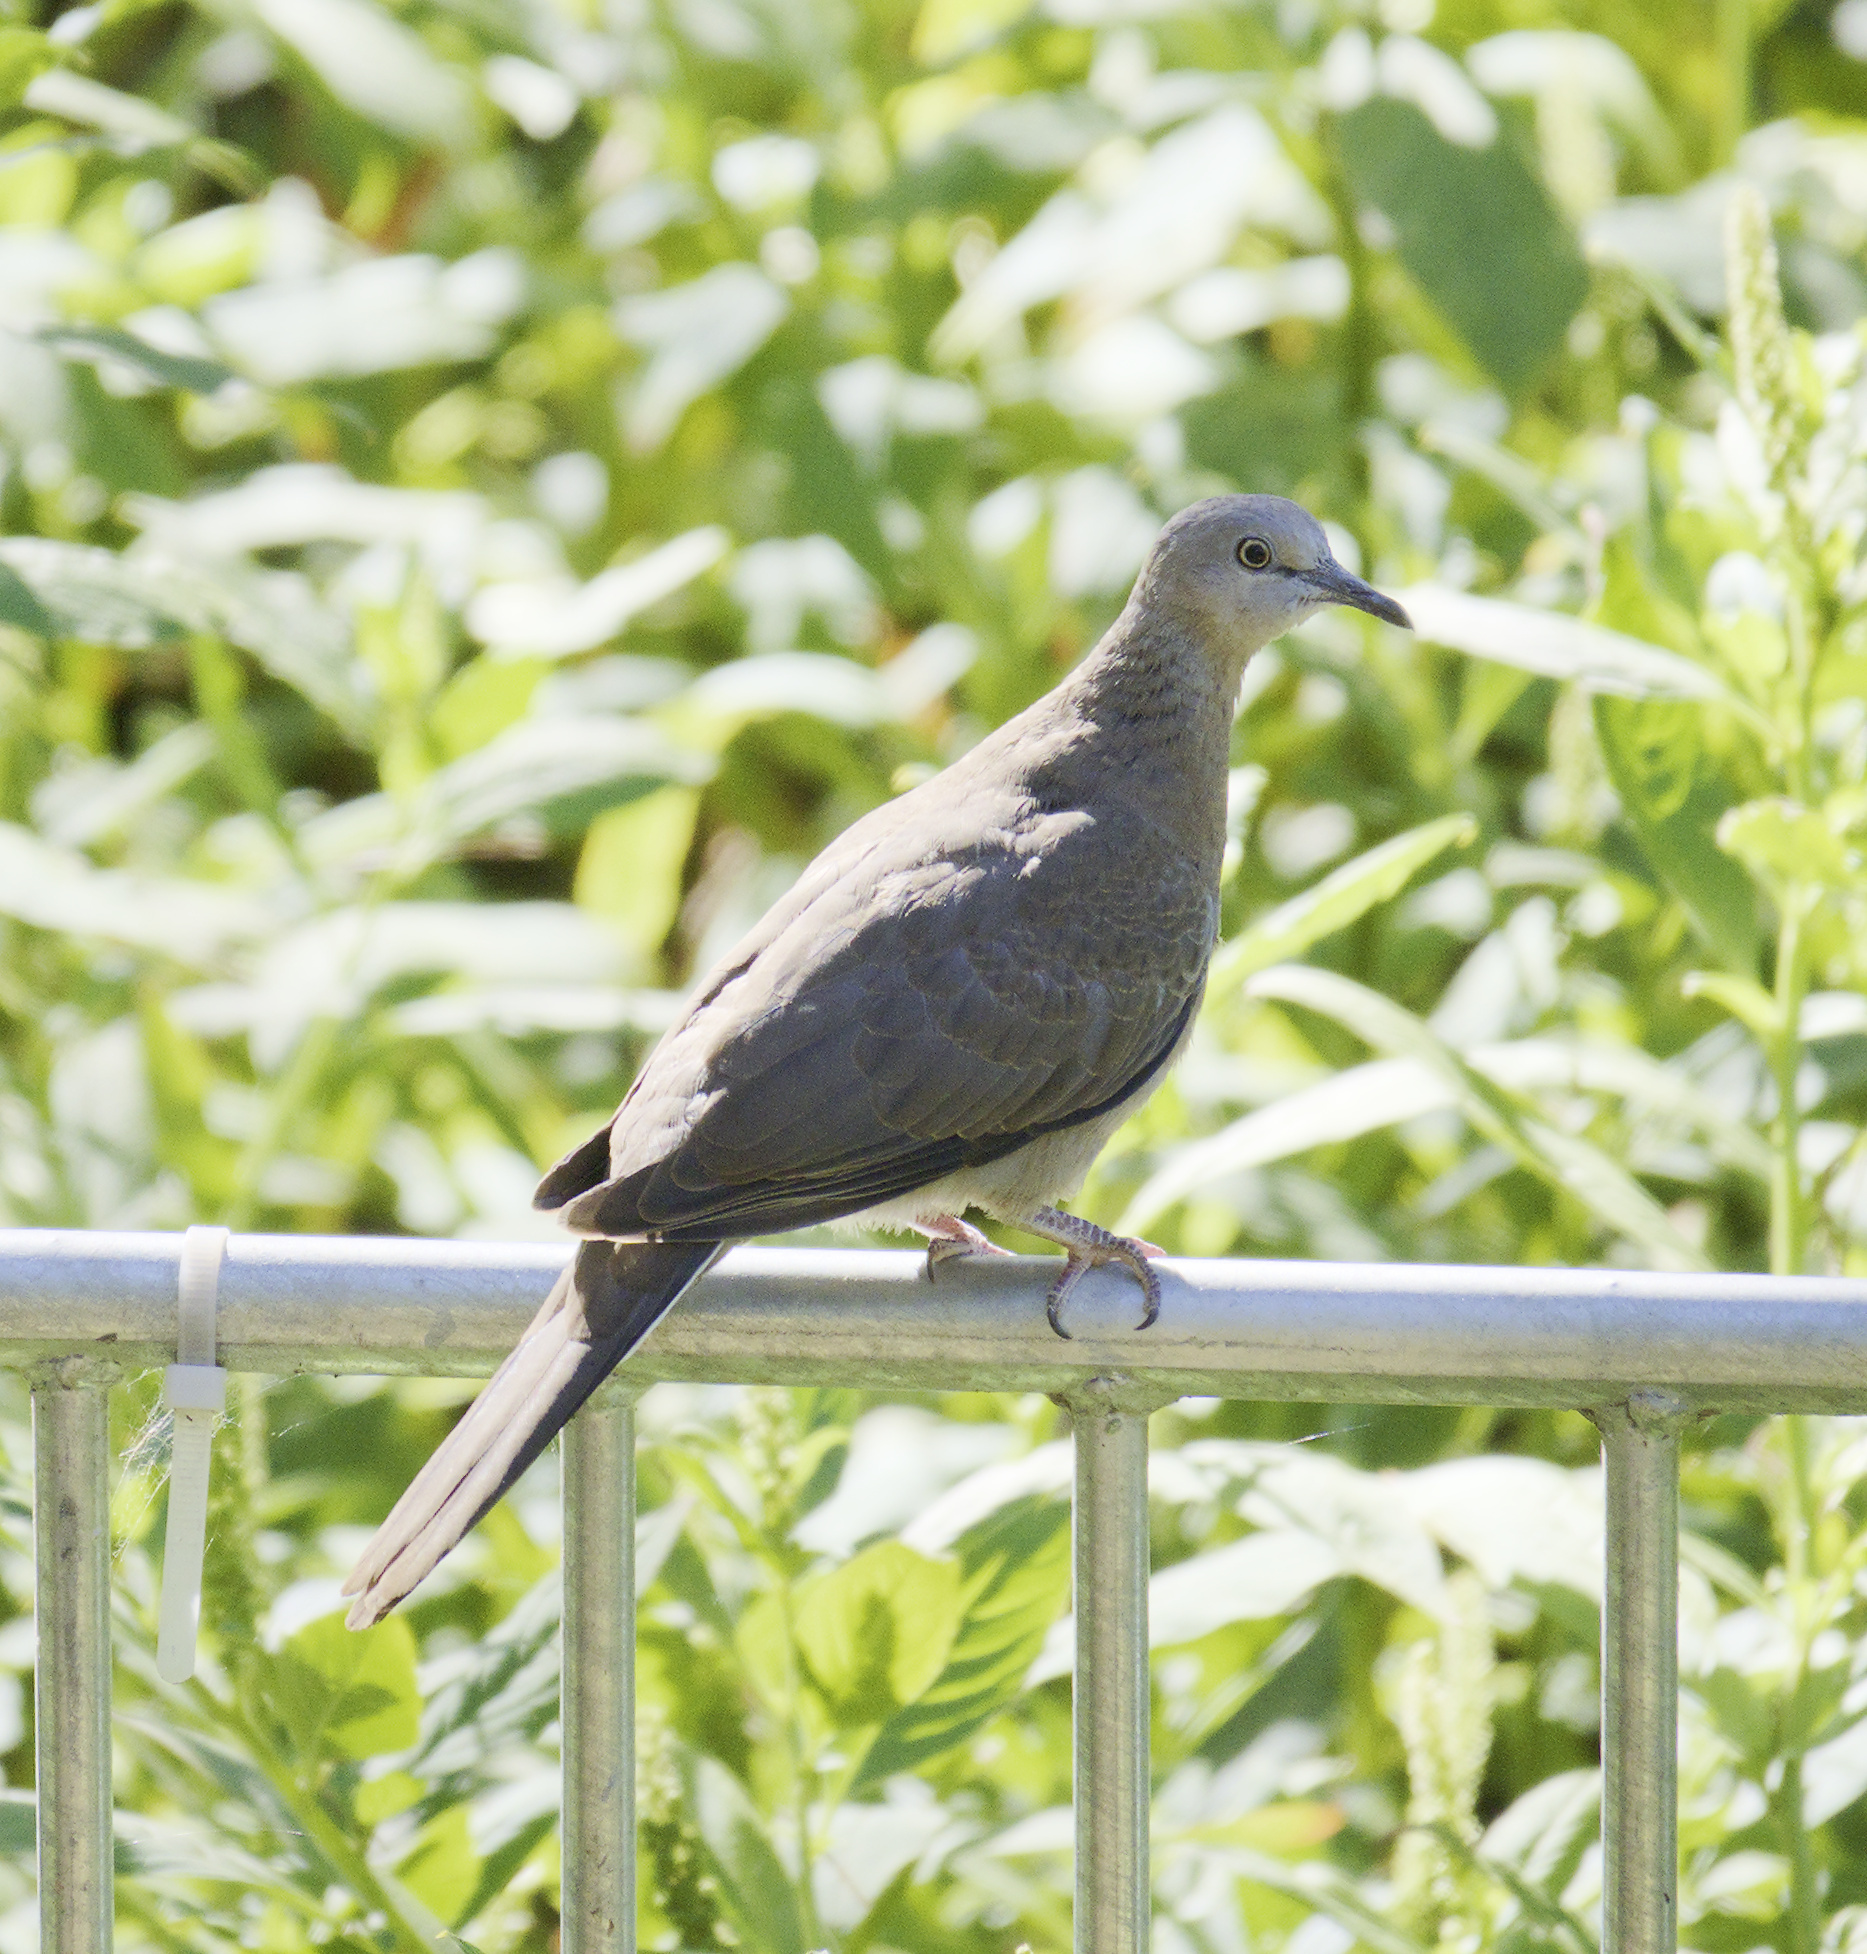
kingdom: Animalia
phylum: Chordata
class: Aves
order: Columbiformes
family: Columbidae
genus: Spilopelia
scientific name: Spilopelia chinensis
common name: Spotted dove
